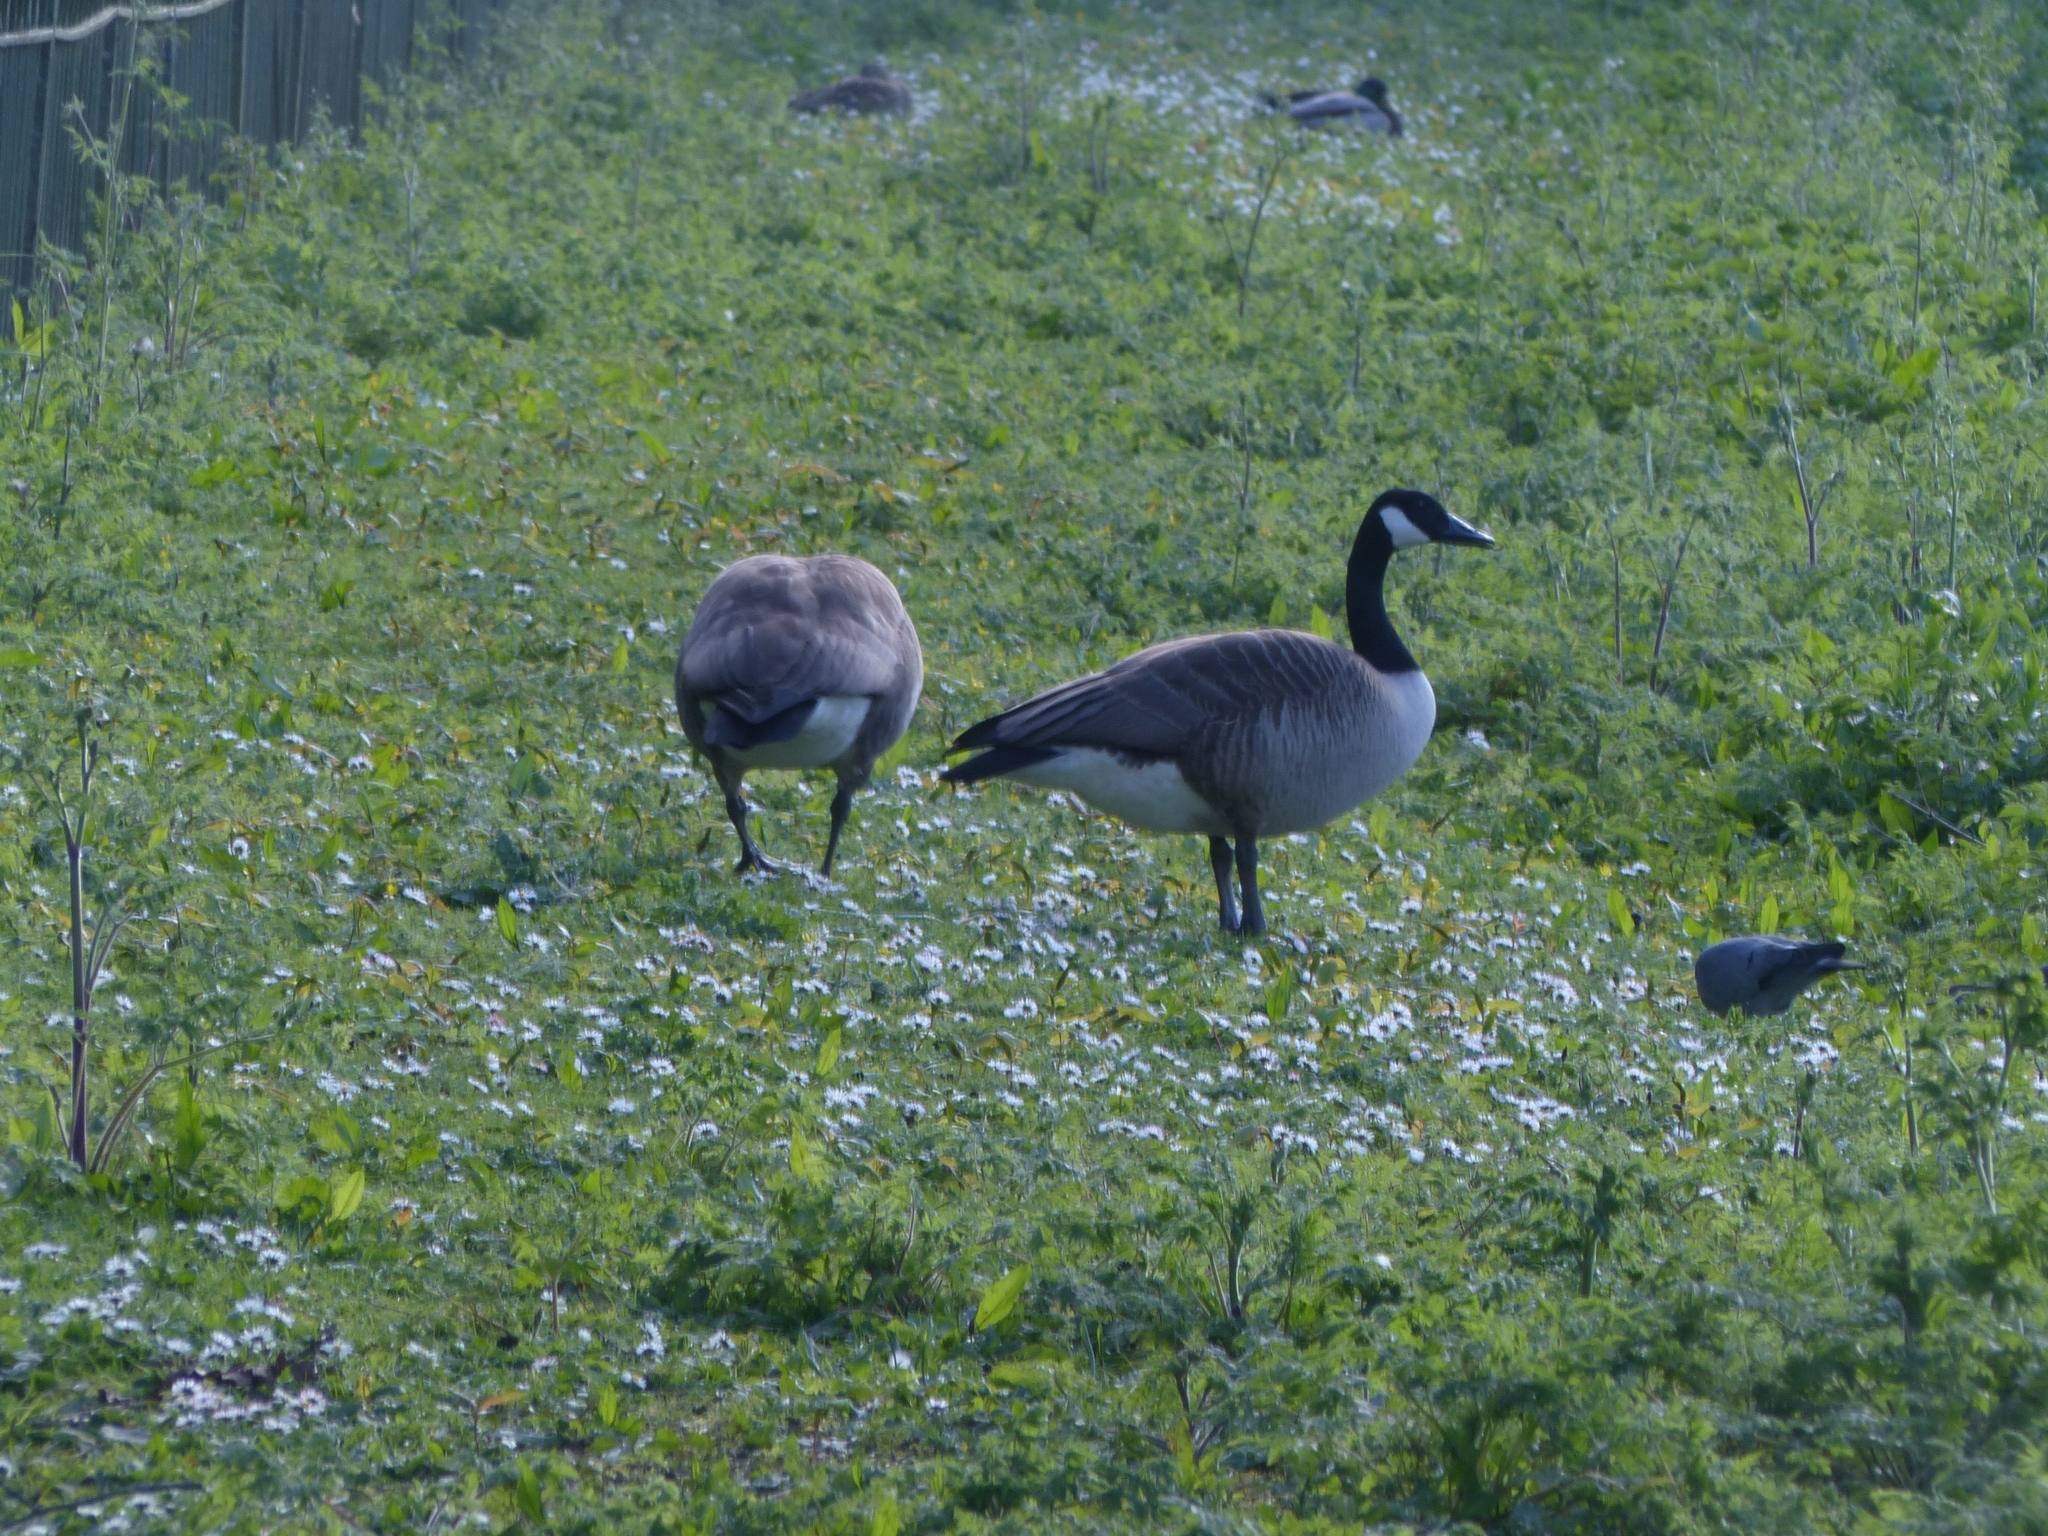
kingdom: Animalia
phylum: Chordata
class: Aves
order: Anseriformes
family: Anatidae
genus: Branta
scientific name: Branta canadensis
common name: Canada goose
